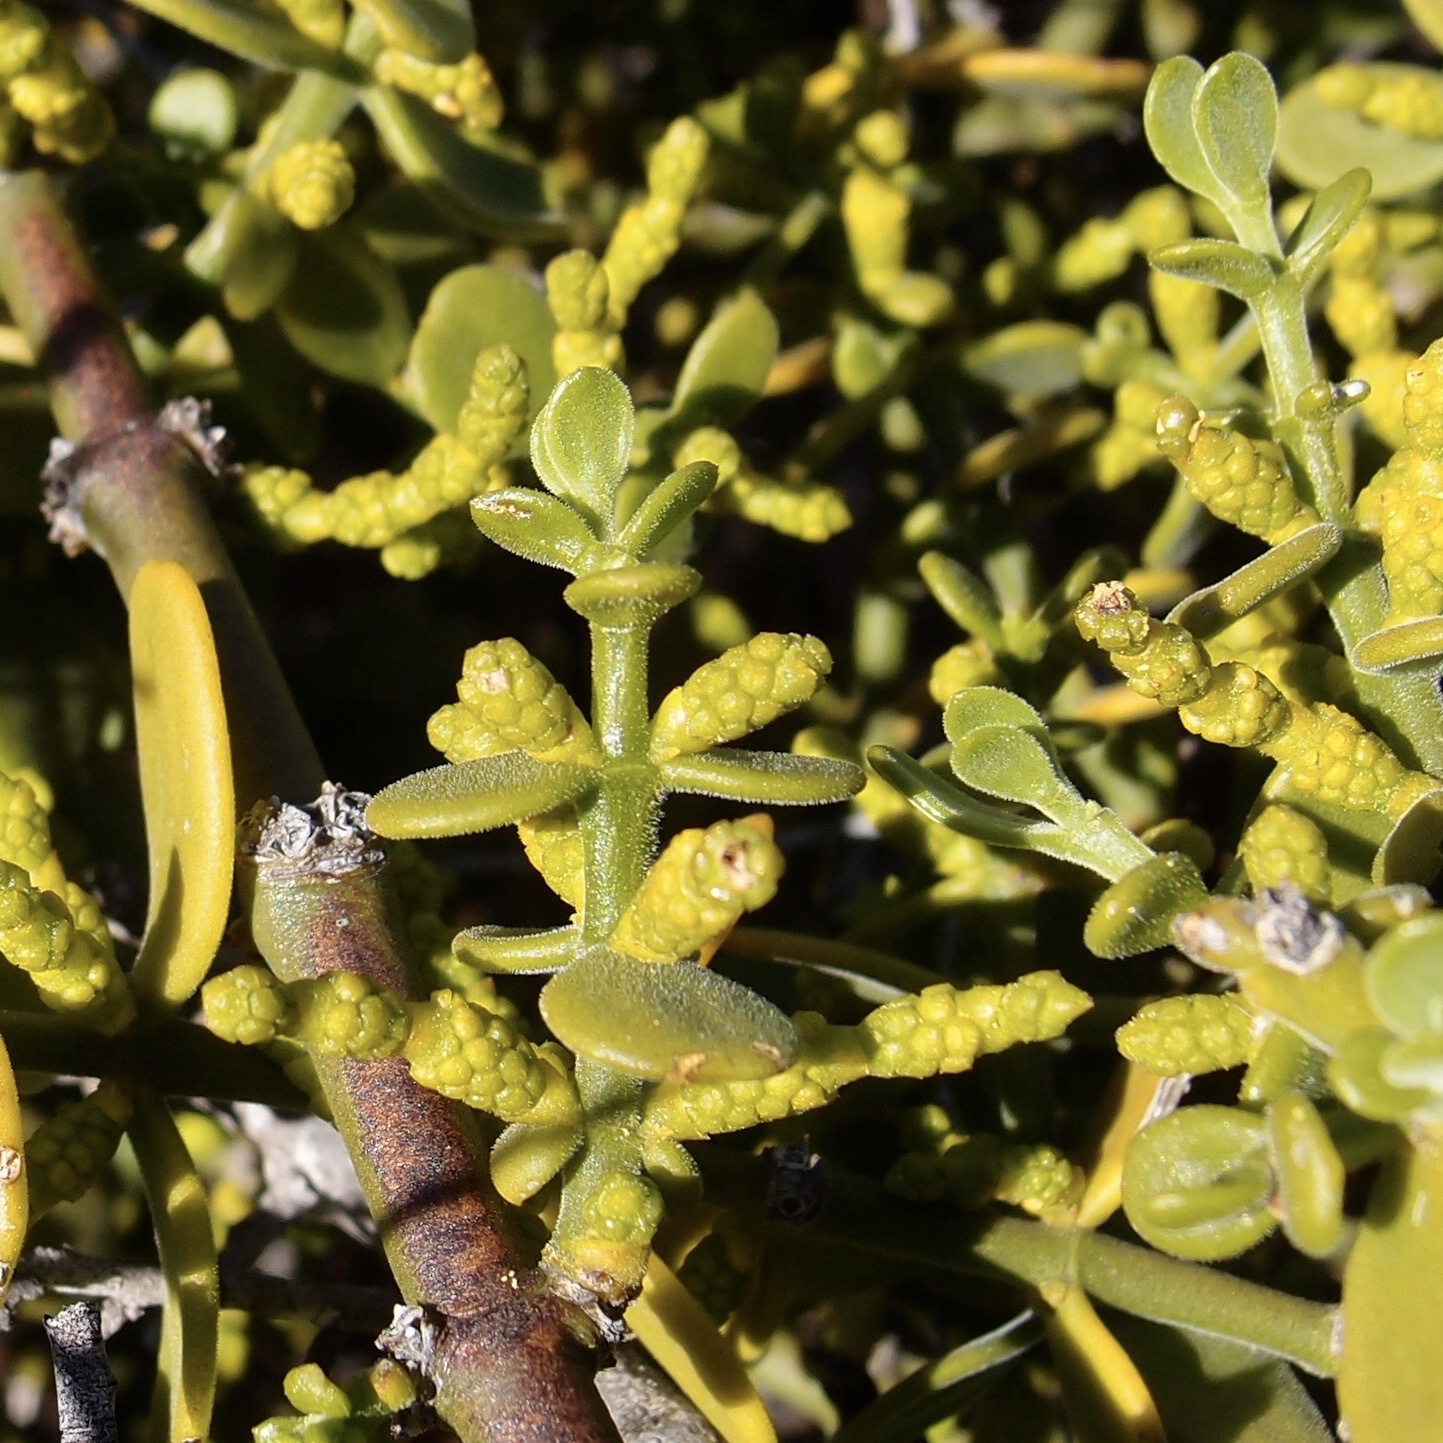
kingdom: Plantae
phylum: Tracheophyta
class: Magnoliopsida
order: Santalales
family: Viscaceae
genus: Phoradendron
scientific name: Phoradendron brachystachyum
